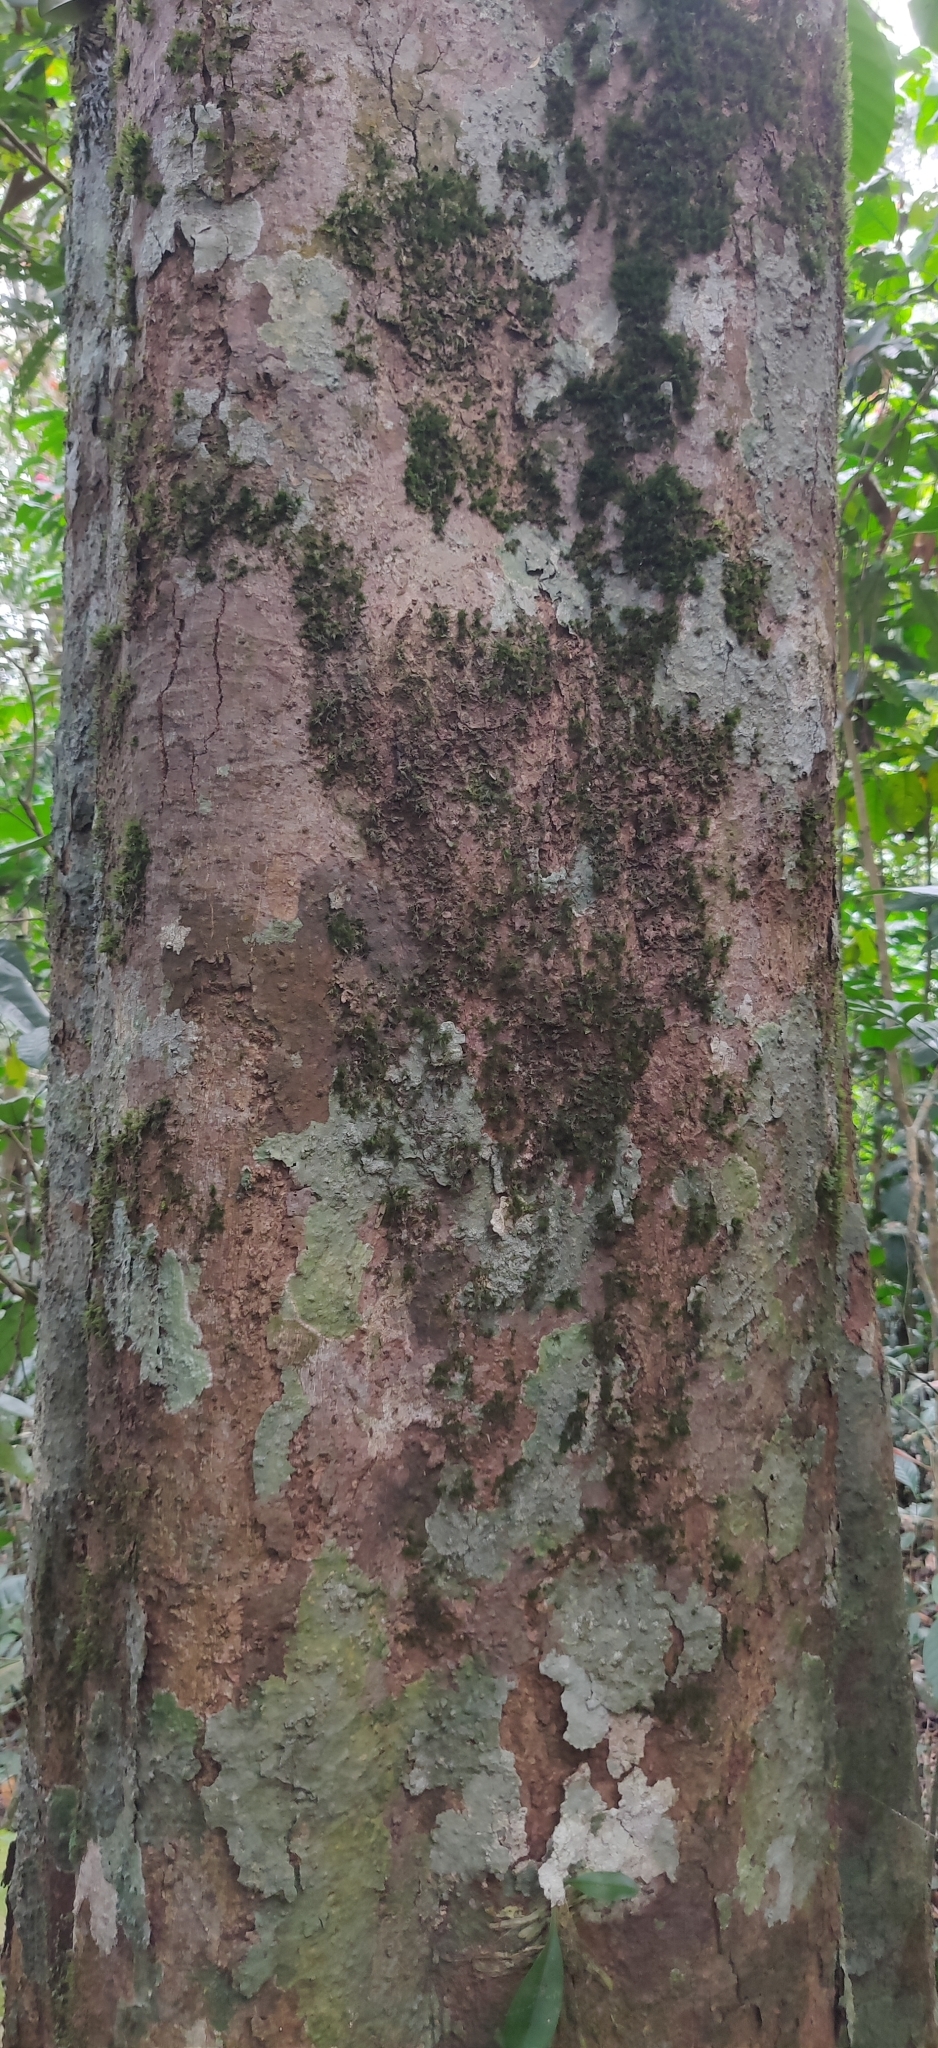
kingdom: Plantae
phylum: Tracheophyta
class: Magnoliopsida
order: Malpighiales
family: Centroplacaceae
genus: Bhesa
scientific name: Bhesa indica
